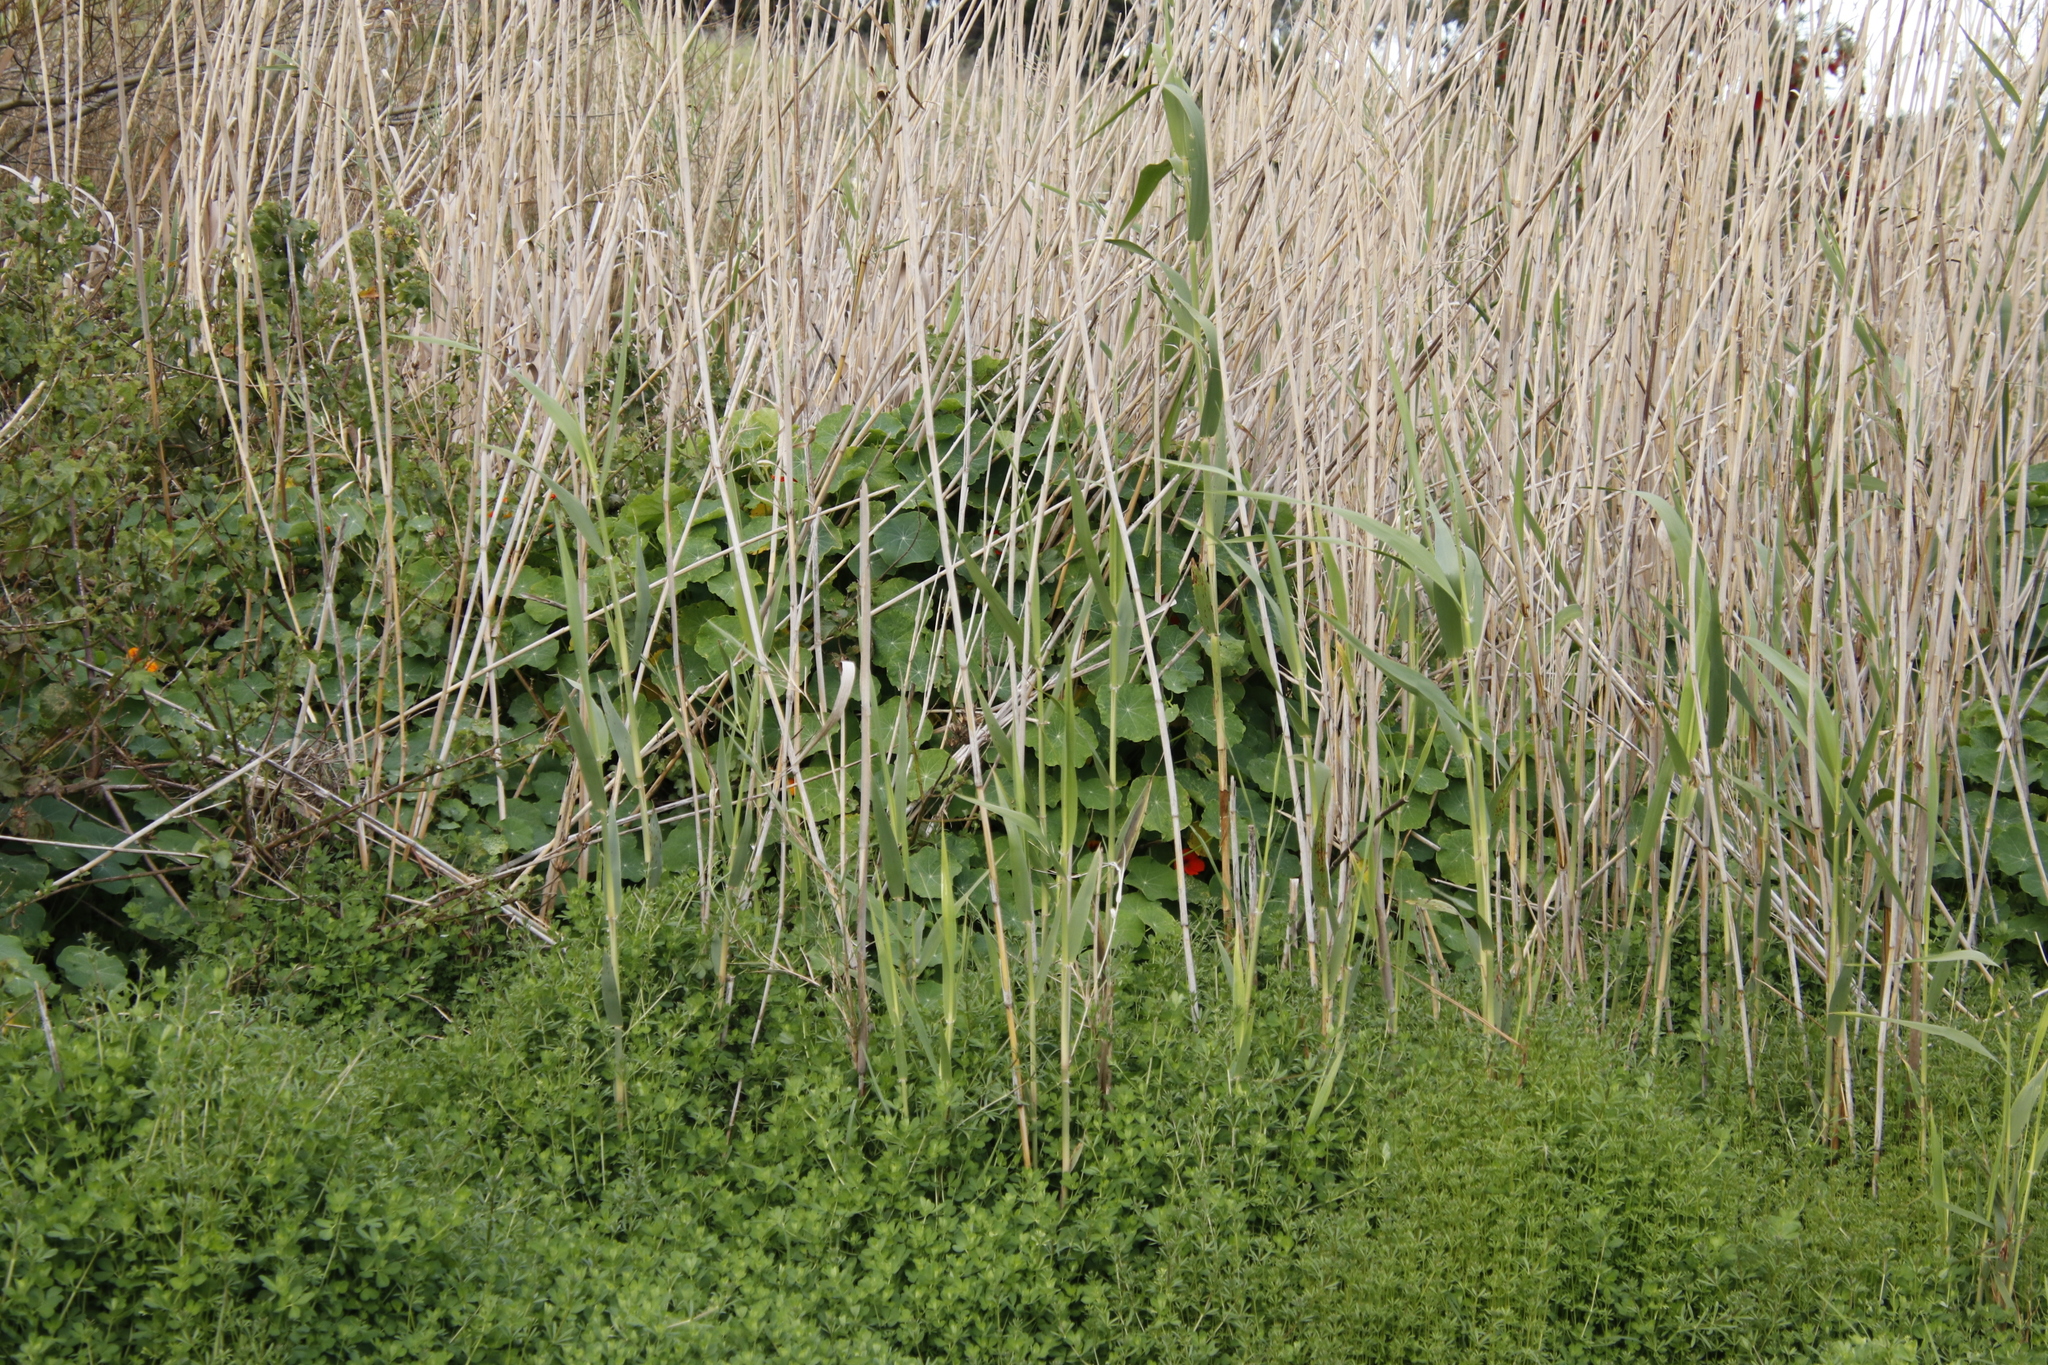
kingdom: Plantae
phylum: Tracheophyta
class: Magnoliopsida
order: Brassicales
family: Tropaeolaceae
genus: Tropaeolum
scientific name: Tropaeolum majus
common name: Nasturtium
